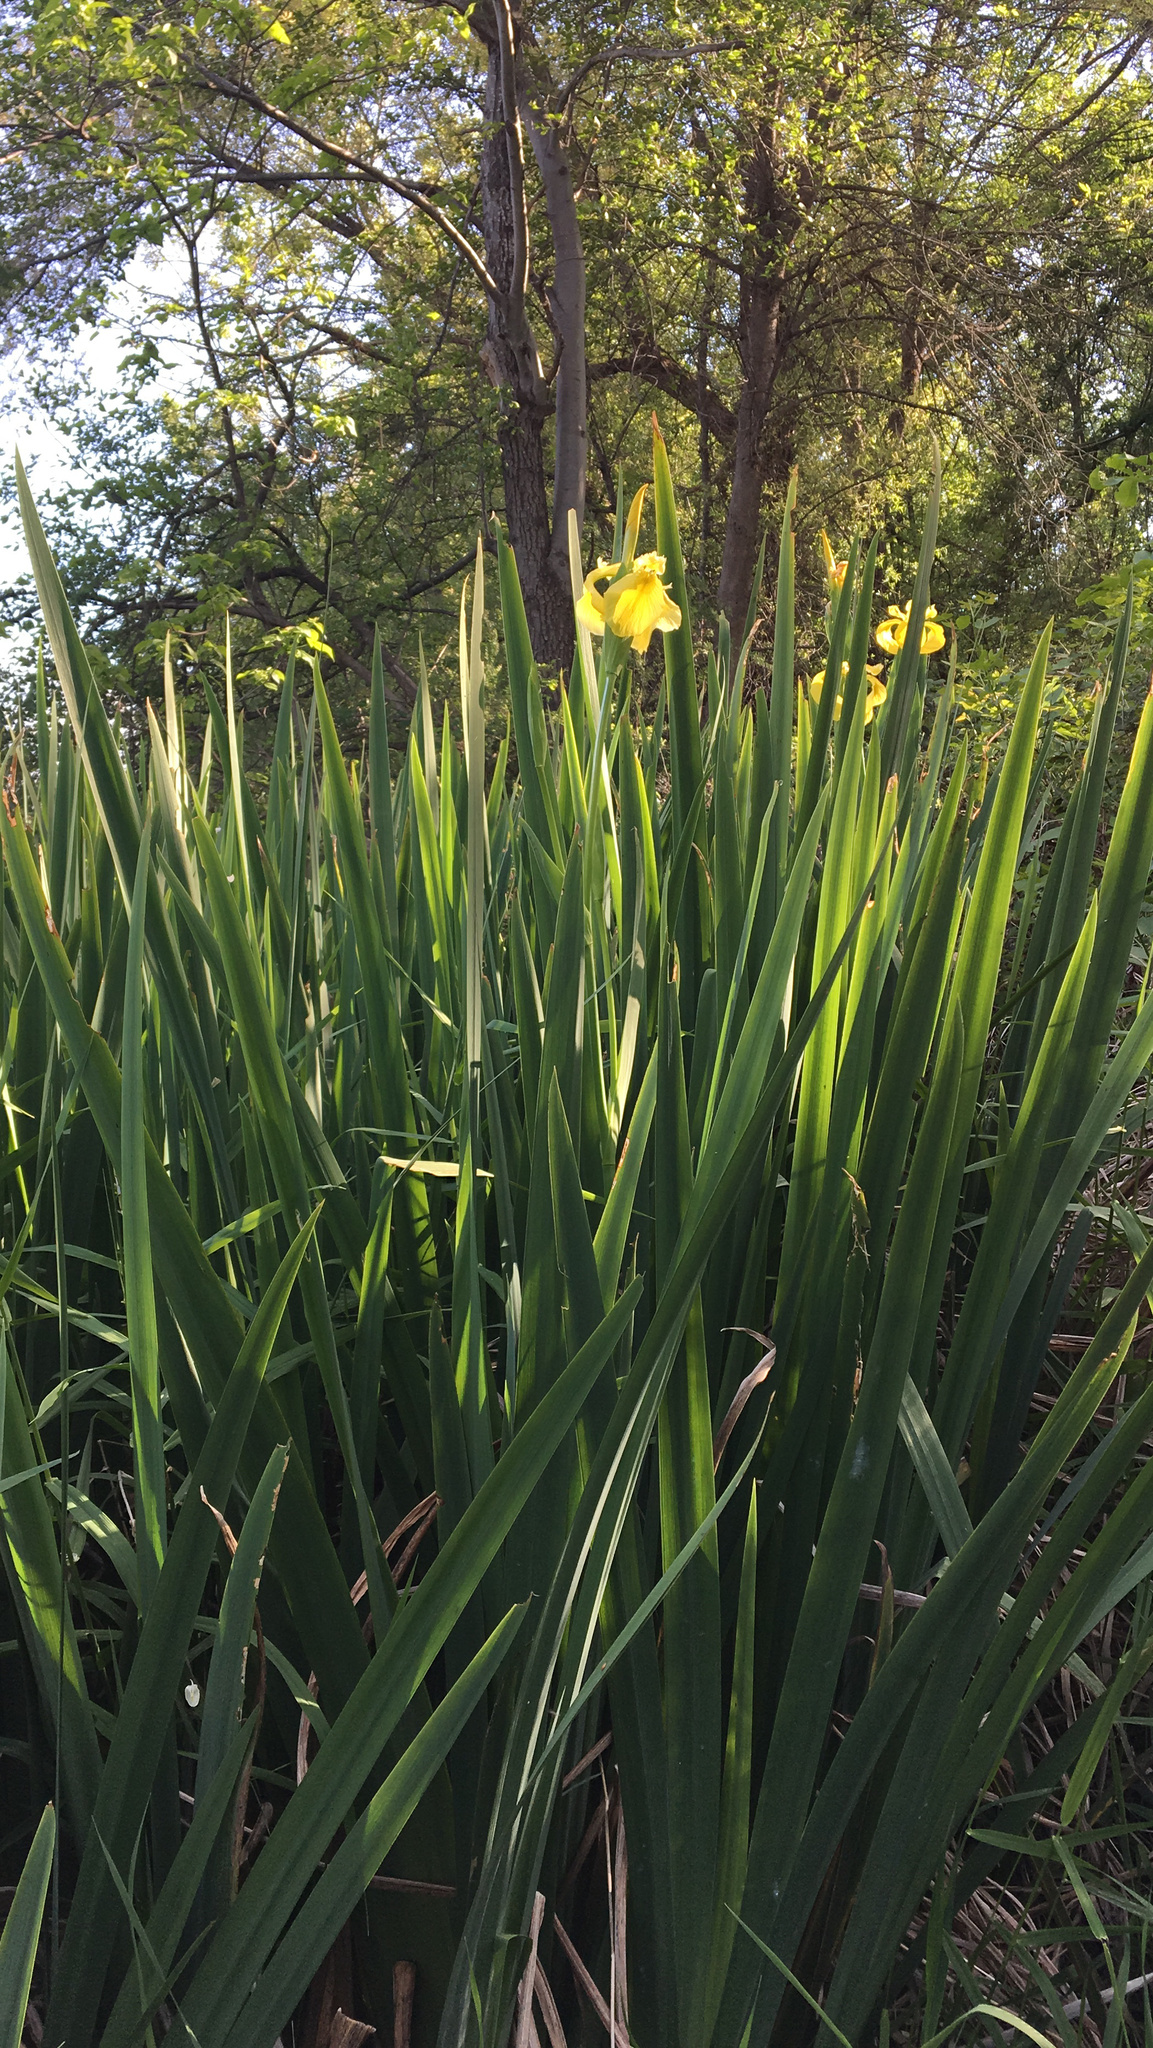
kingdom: Plantae
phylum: Tracheophyta
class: Liliopsida
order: Asparagales
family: Iridaceae
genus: Iris
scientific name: Iris pseudacorus
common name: Yellow flag
